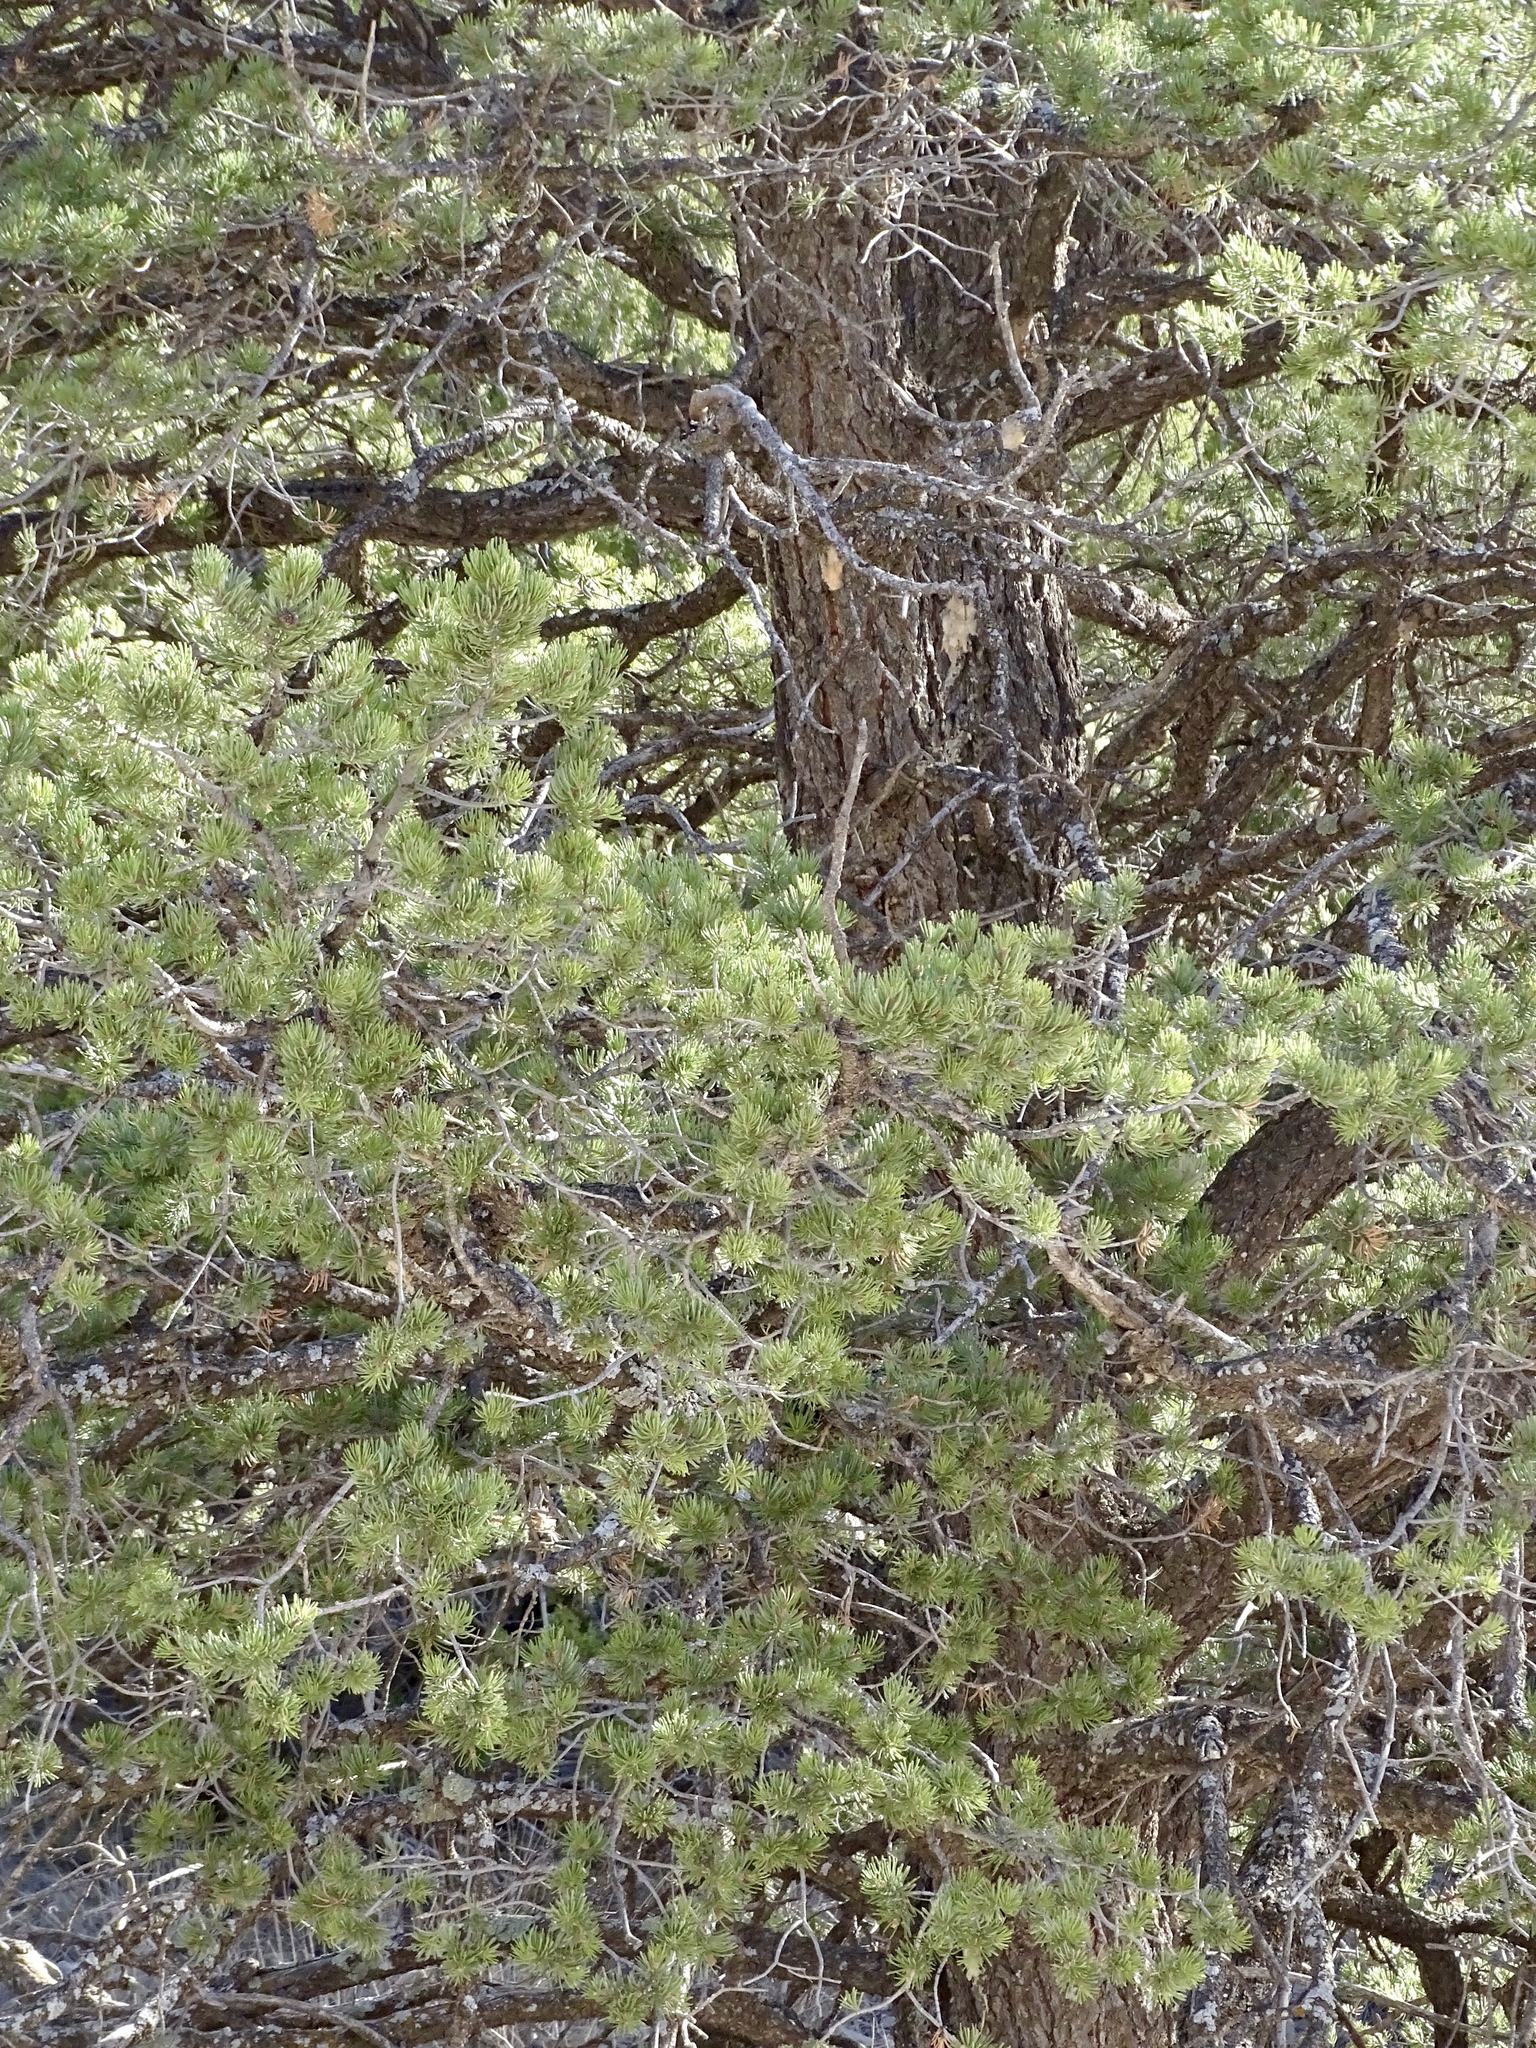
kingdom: Plantae
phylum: Tracheophyta
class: Pinopsida
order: Pinales
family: Pinaceae
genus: Pinus
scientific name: Pinus edulis
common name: Colorado pinyon
